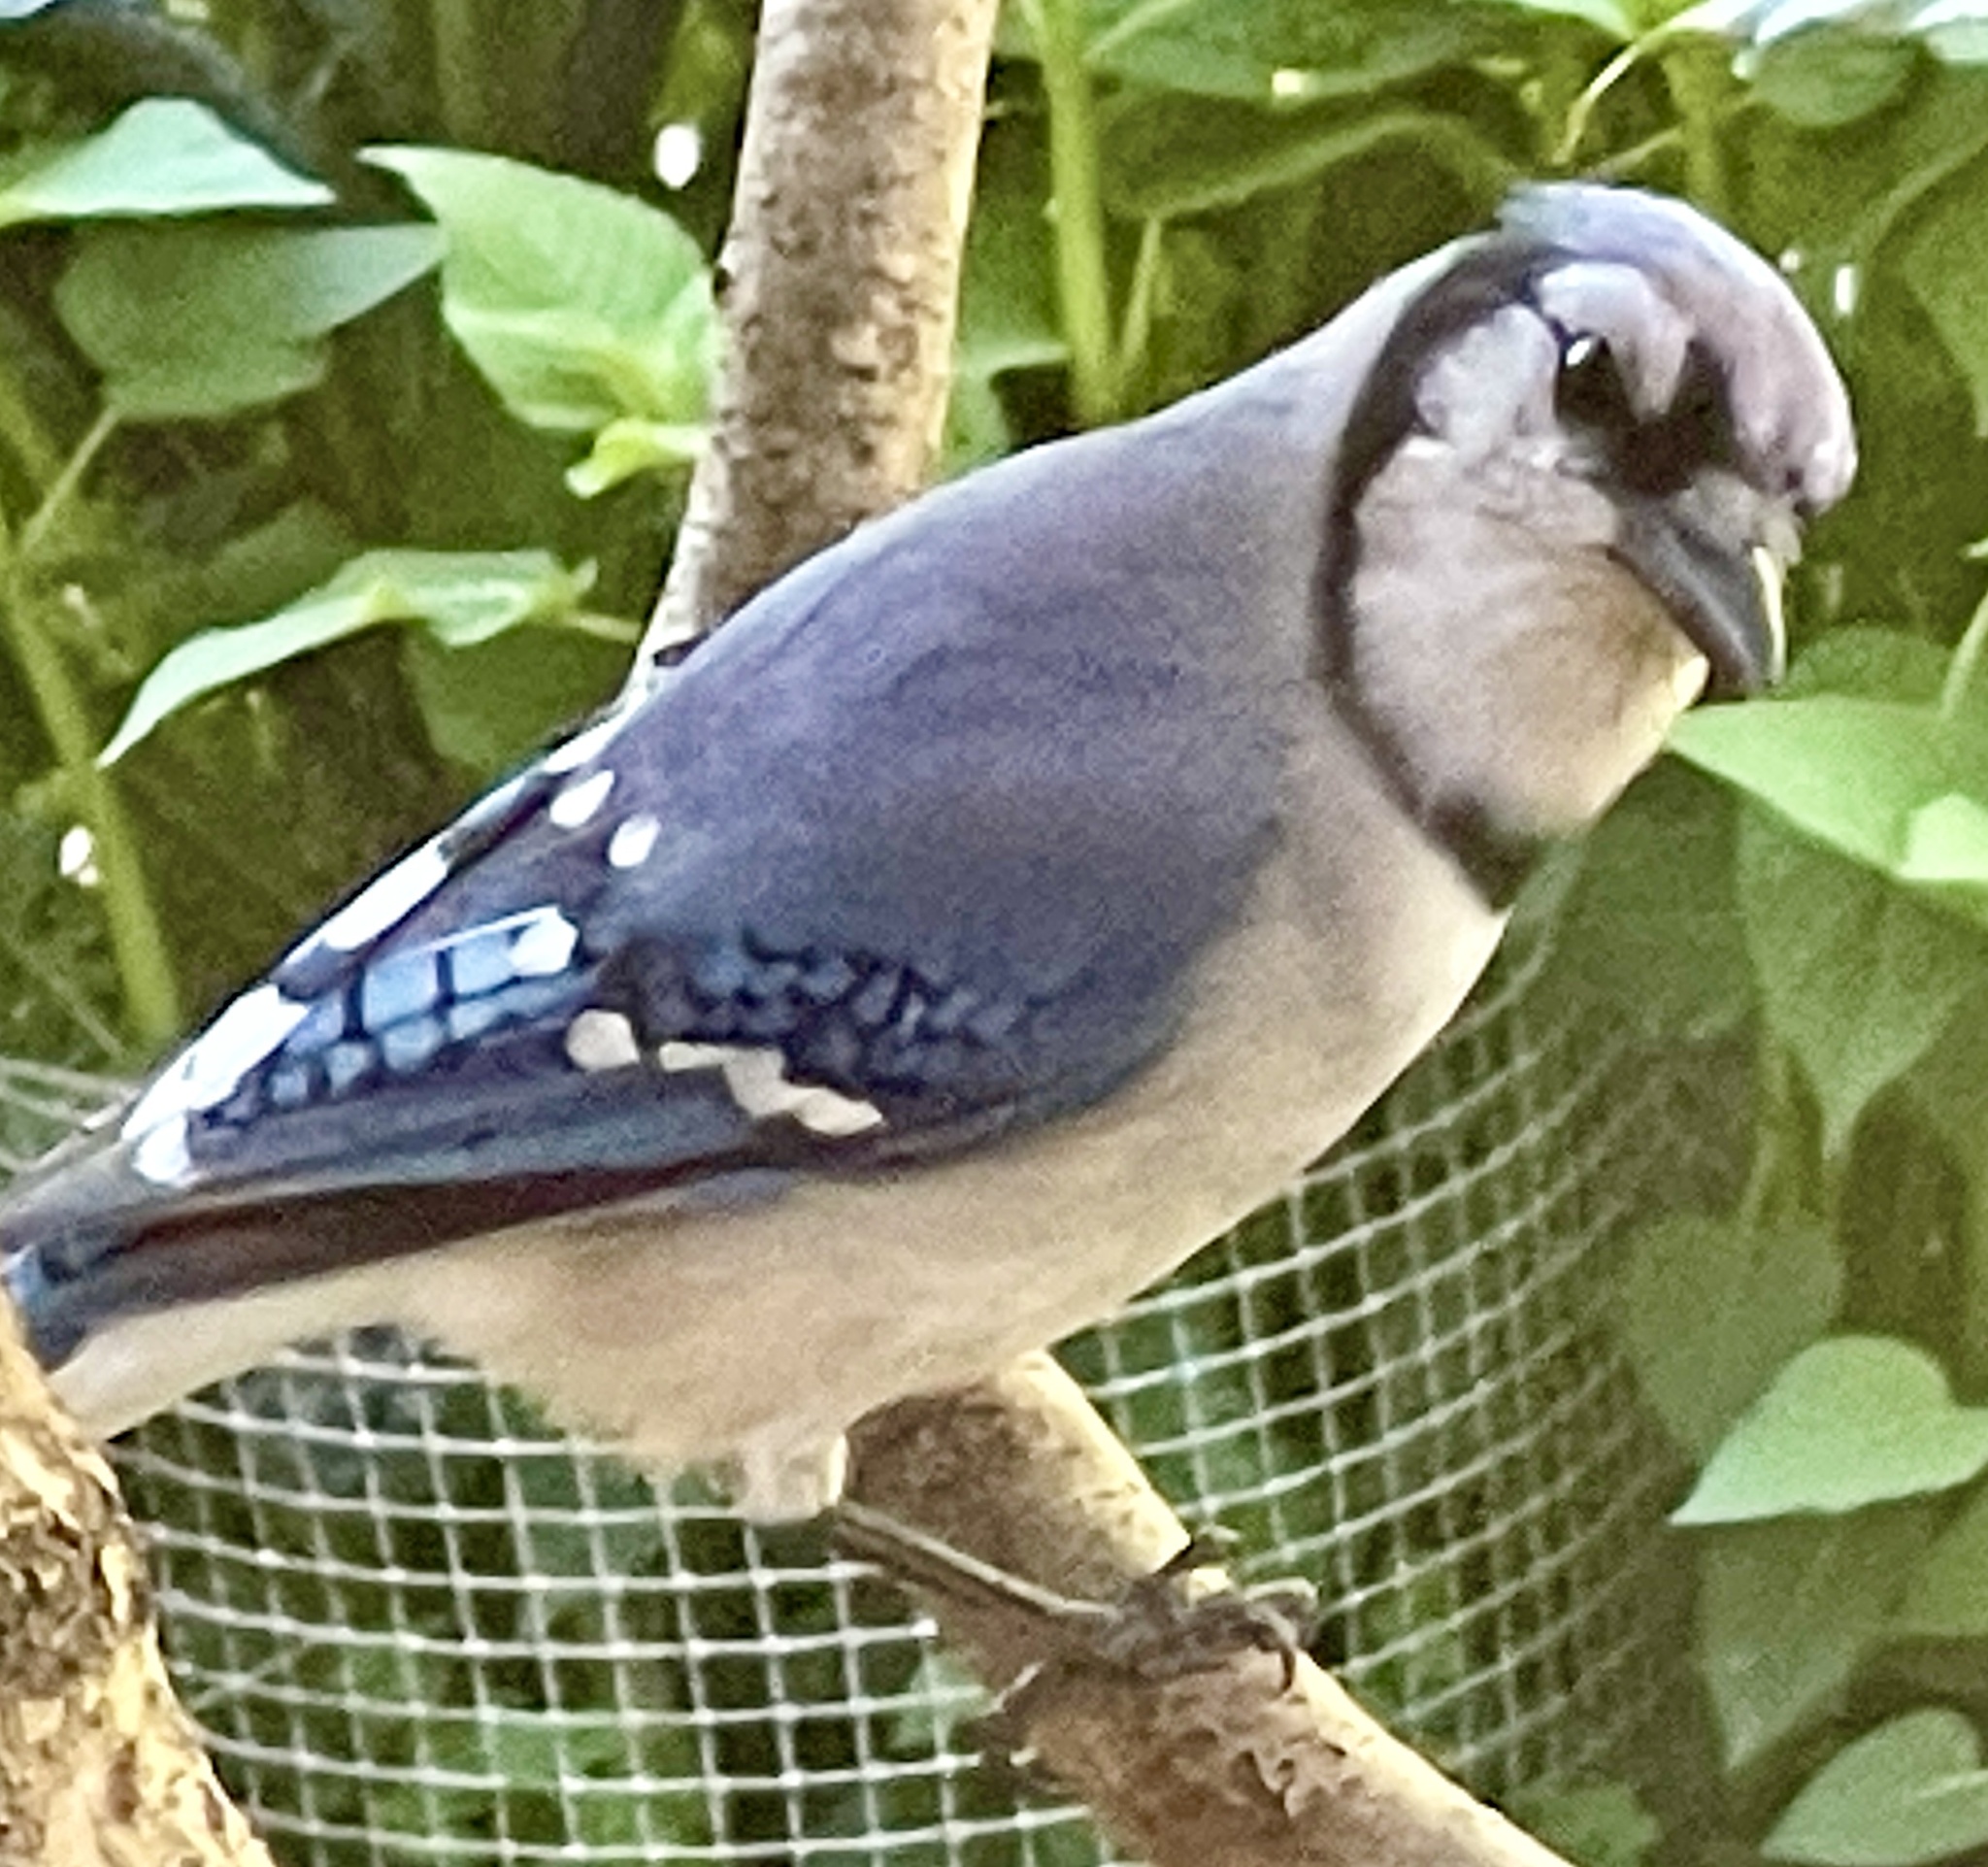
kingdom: Animalia
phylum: Chordata
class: Aves
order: Passeriformes
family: Corvidae
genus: Cyanocitta
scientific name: Cyanocitta cristata
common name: Blue jay
